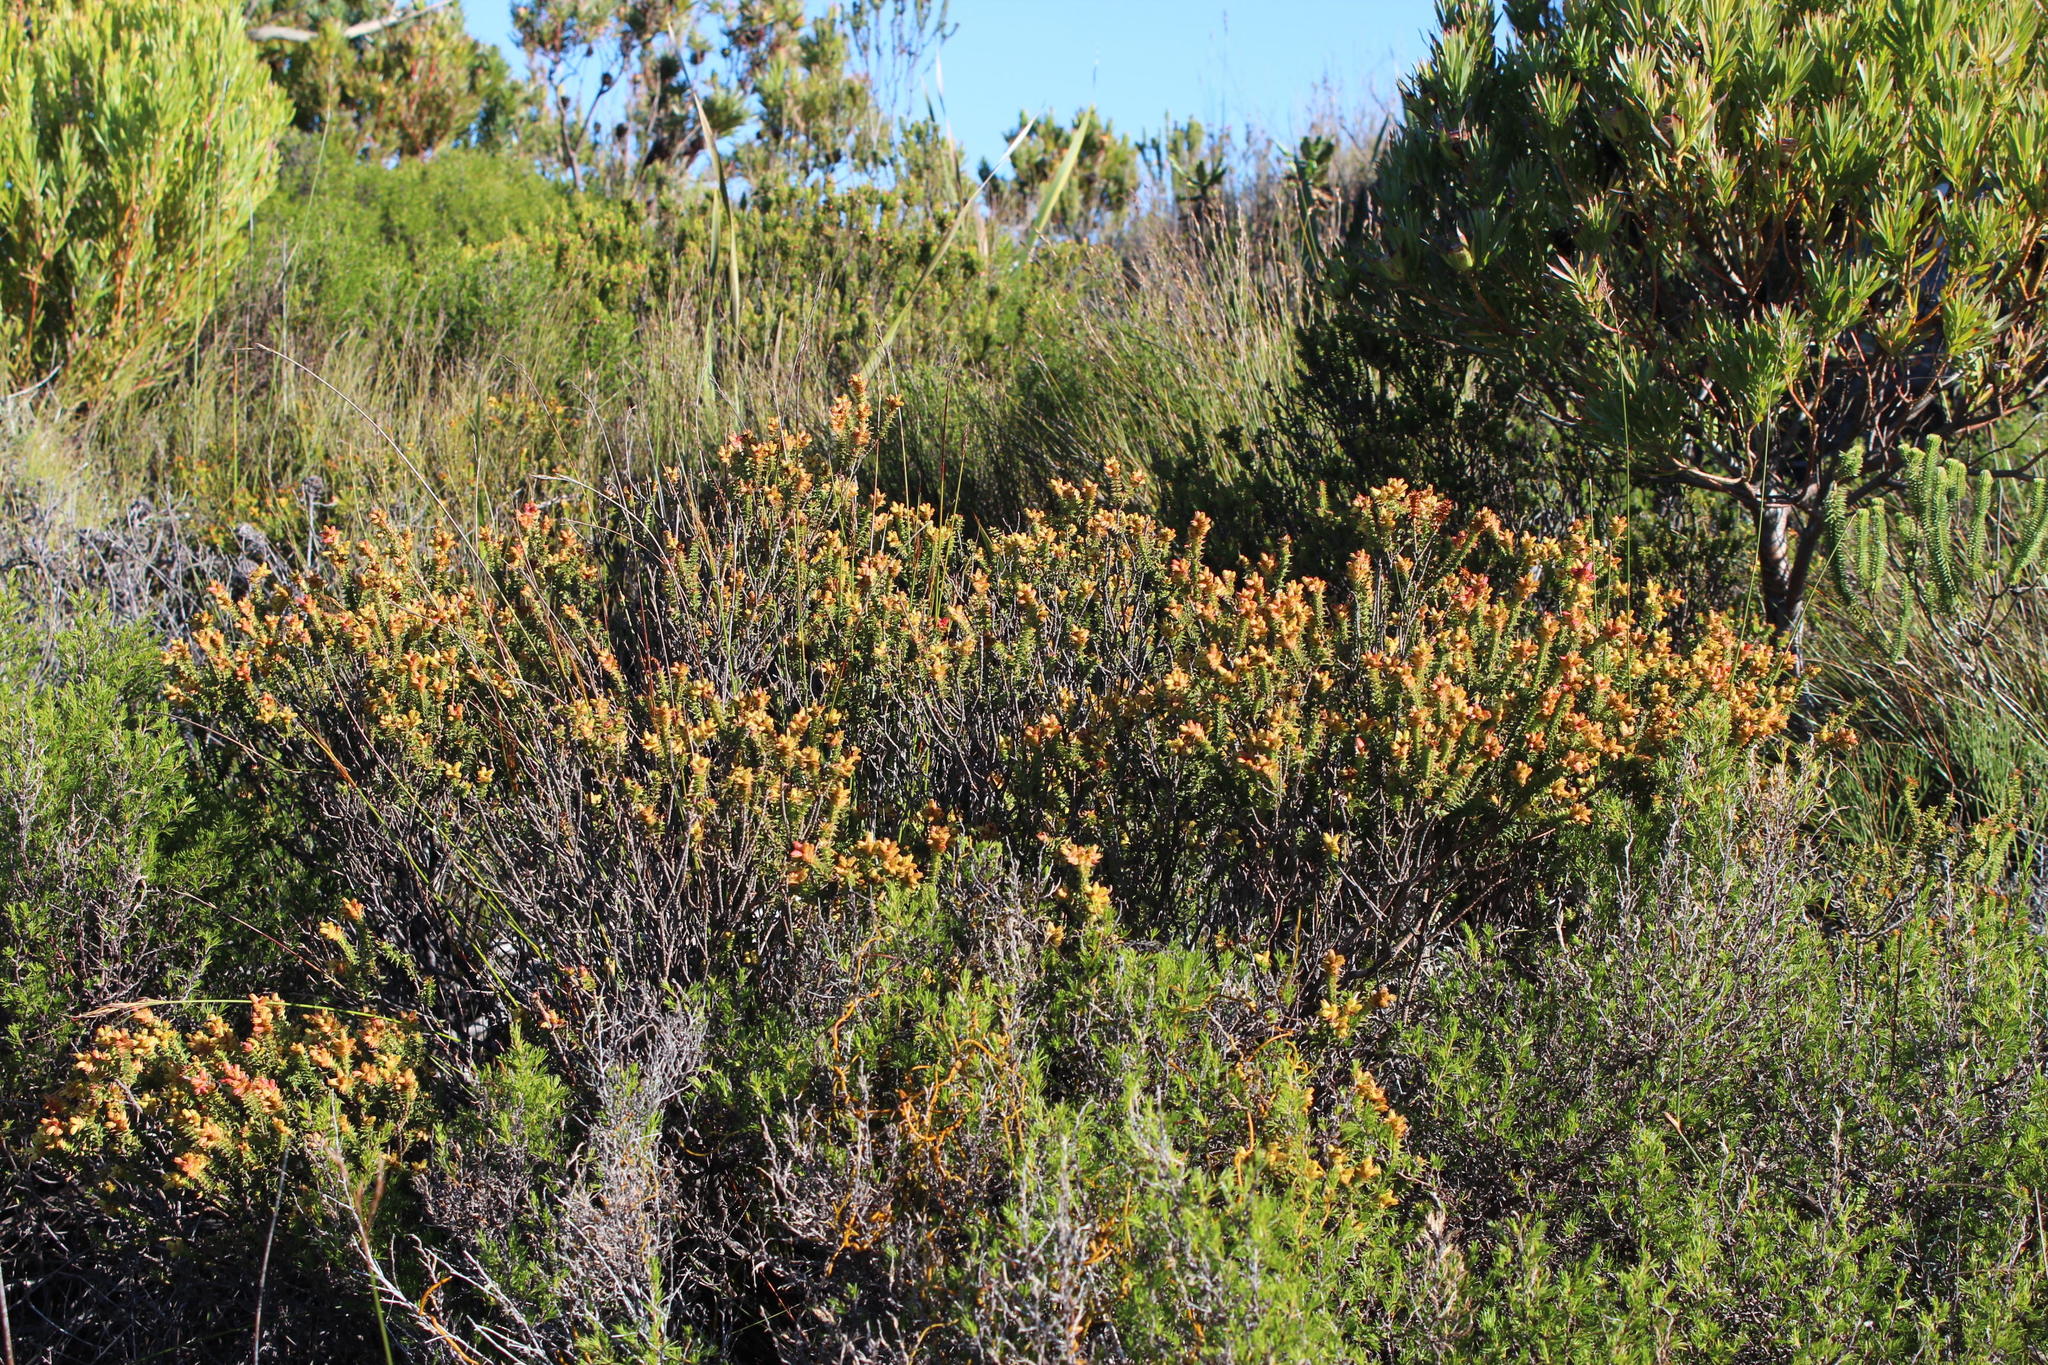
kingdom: Plantae
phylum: Tracheophyta
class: Magnoliopsida
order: Myrtales
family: Penaeaceae
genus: Penaea
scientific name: Penaea mucronata
